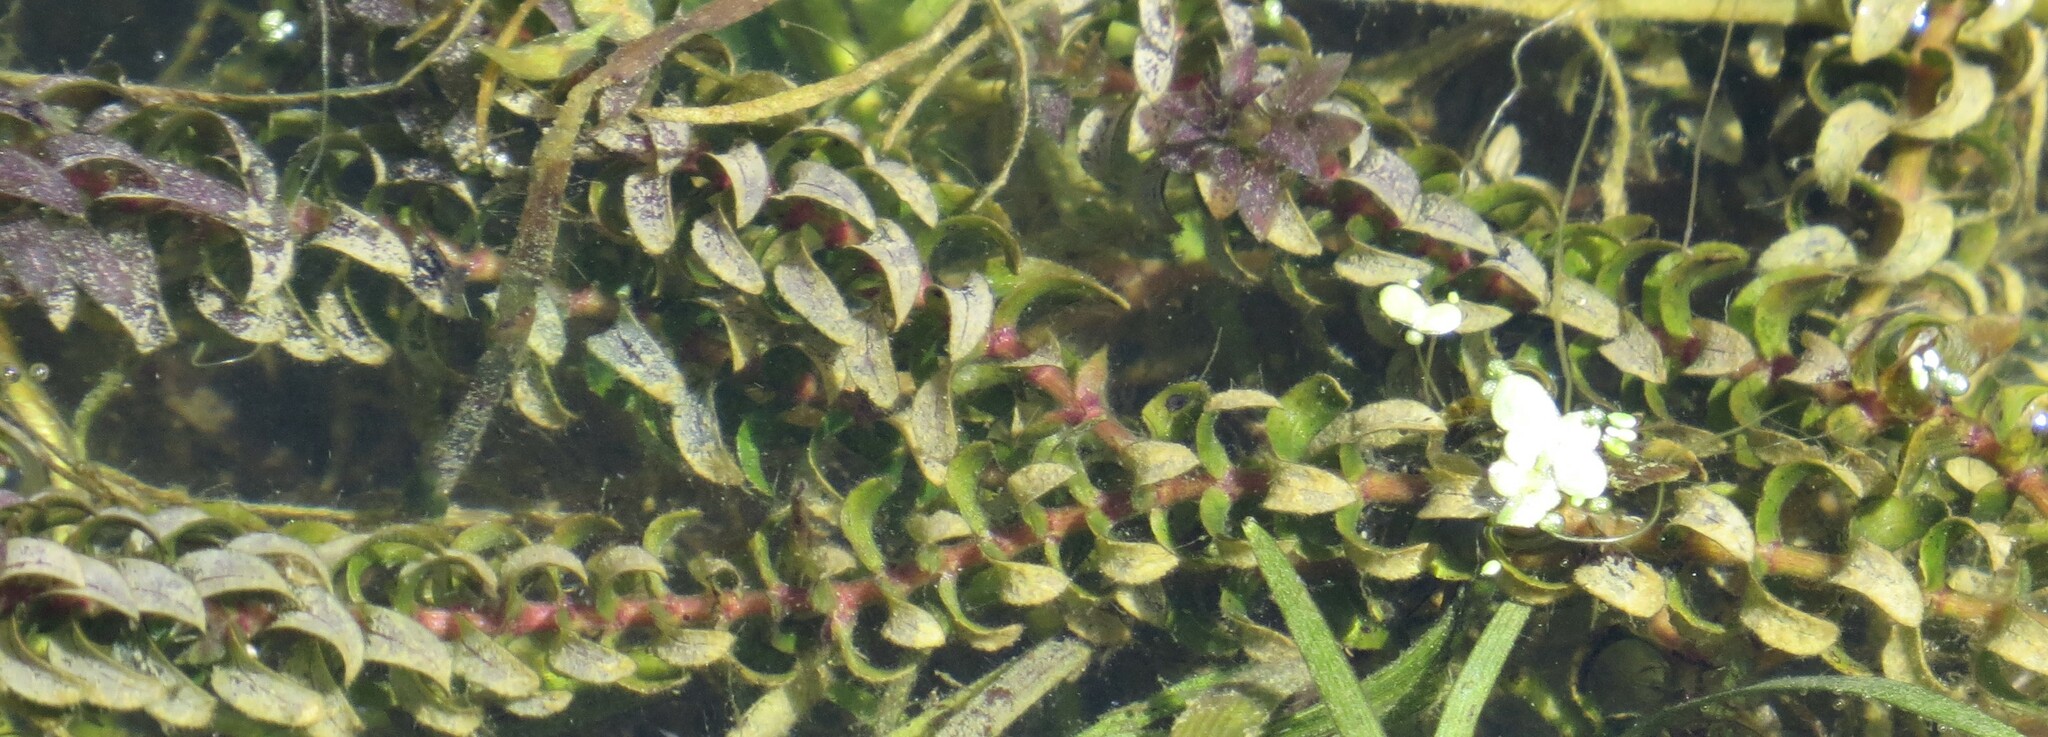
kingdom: Plantae
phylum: Tracheophyta
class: Liliopsida
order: Alismatales
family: Hydrocharitaceae
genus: Elodea
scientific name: Elodea canadensis
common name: Canadian waterweed
